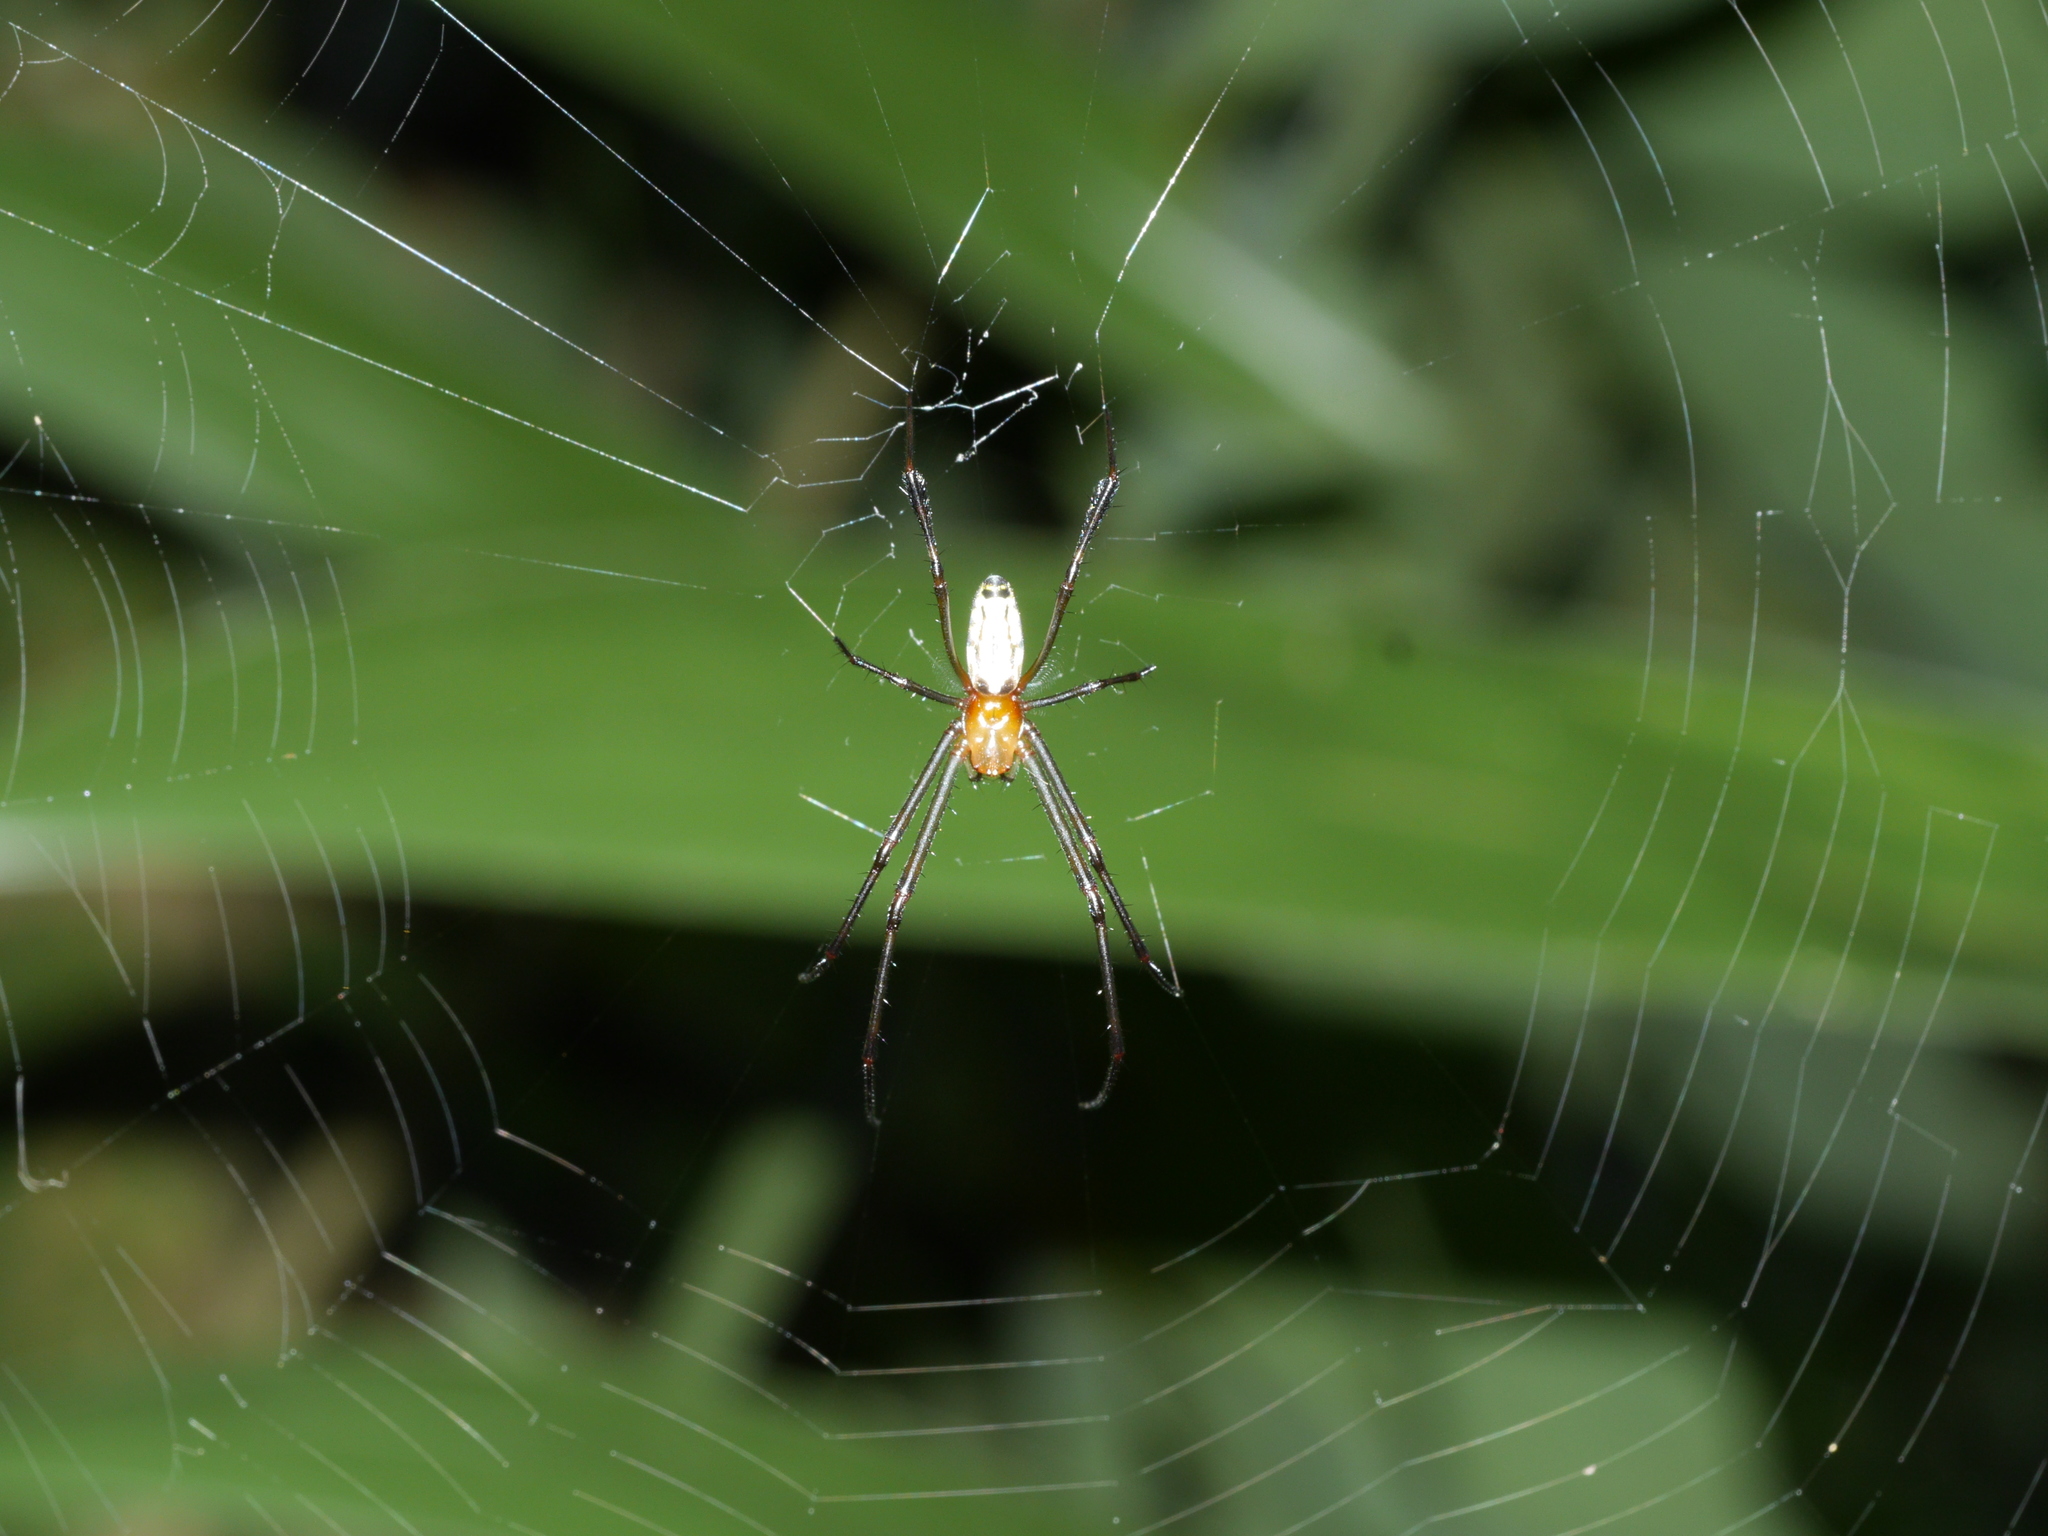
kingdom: Animalia
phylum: Arthropoda
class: Arachnida
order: Araneae
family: Tetragnathidae
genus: Leucauge
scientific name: Leucauge tessellata
